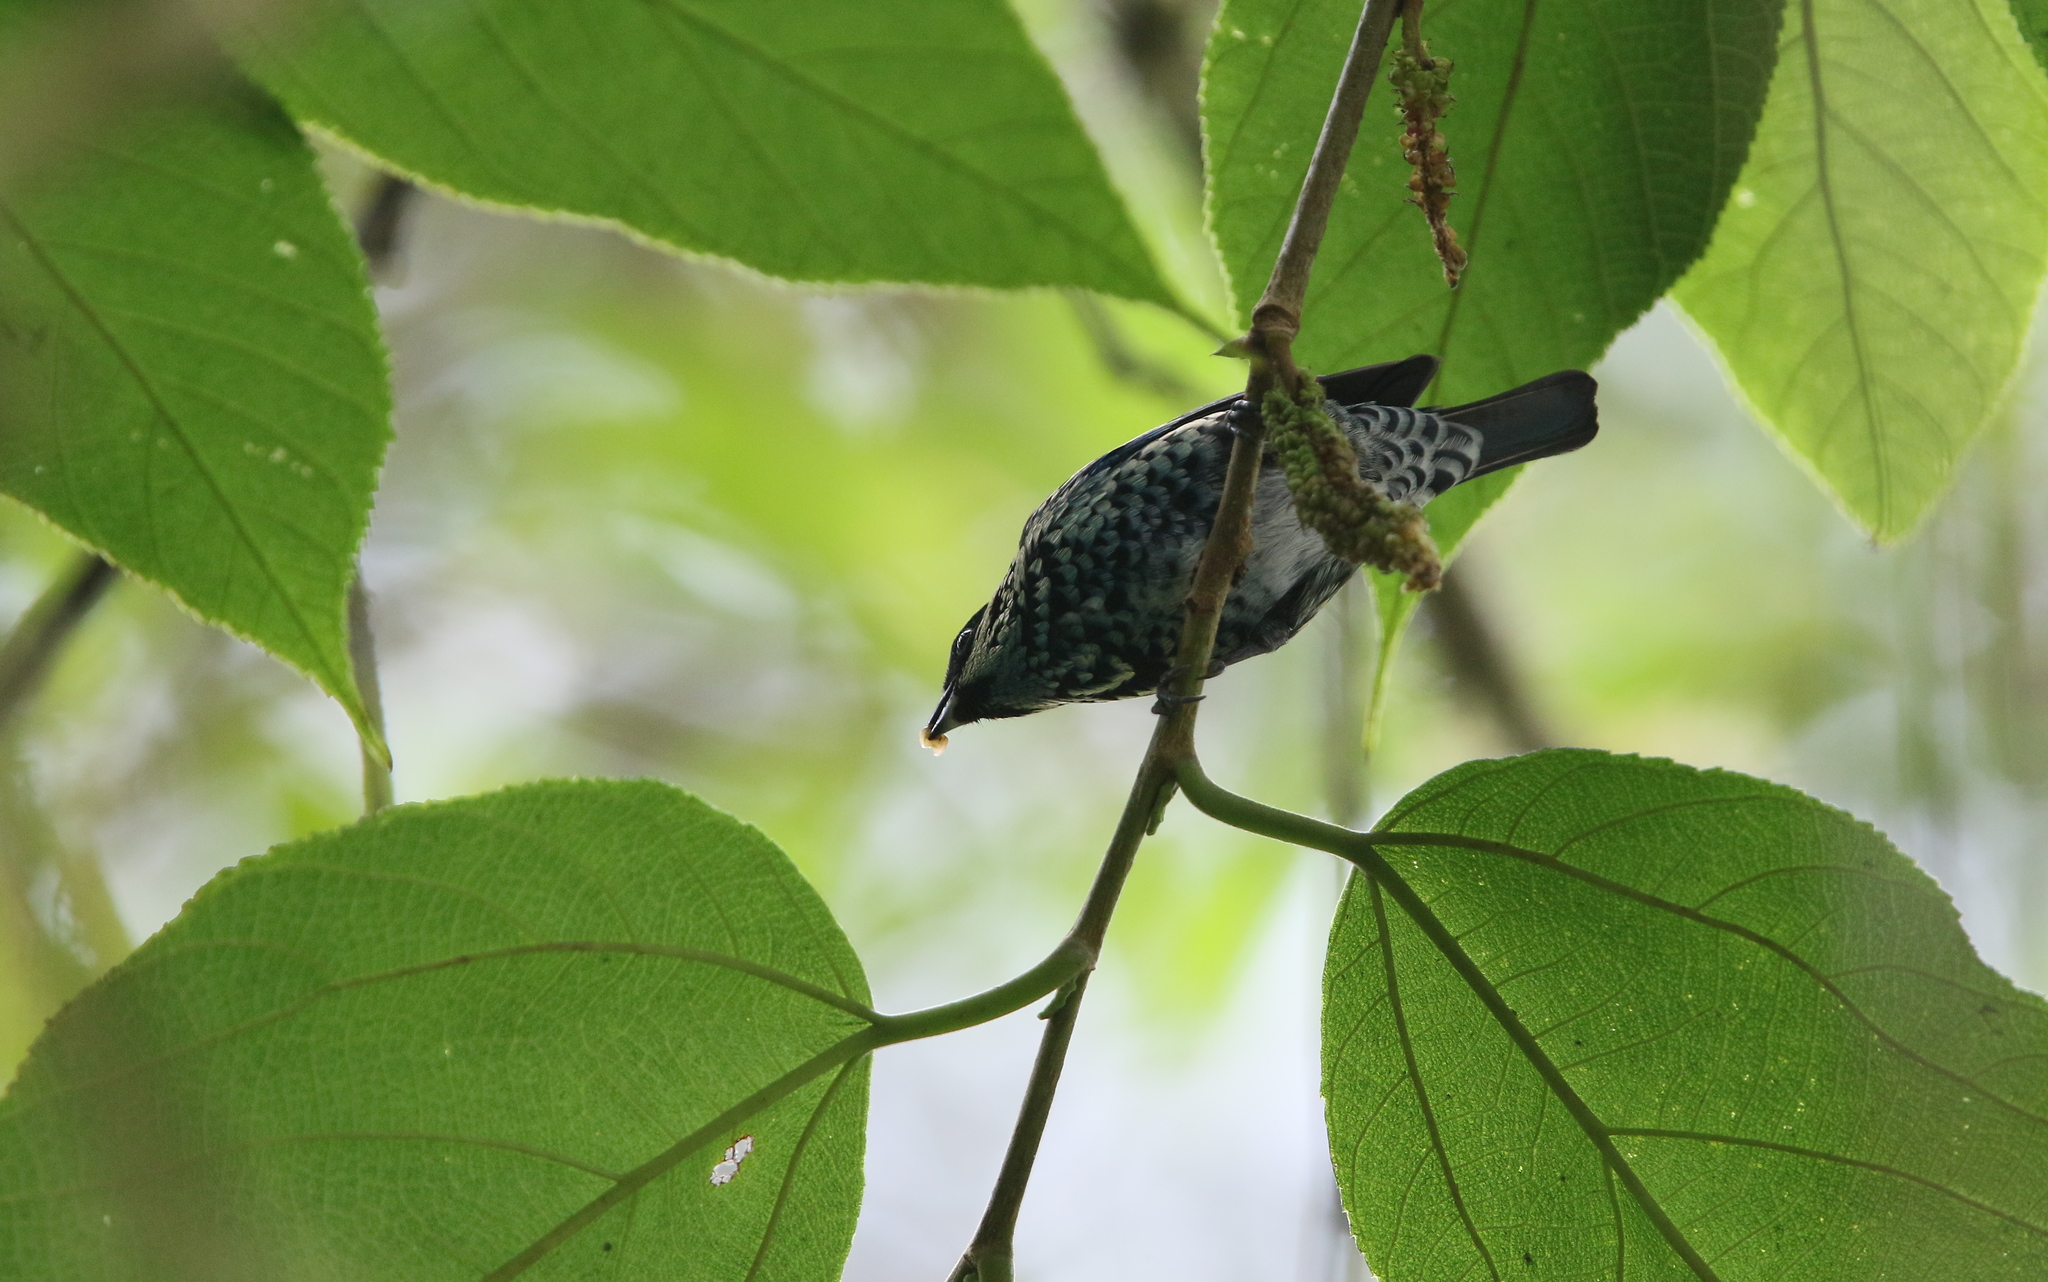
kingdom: Animalia
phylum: Chordata
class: Aves
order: Passeriformes
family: Thraupidae
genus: Tangara
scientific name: Tangara nigroviridis
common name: Beryl-spangled tanager
